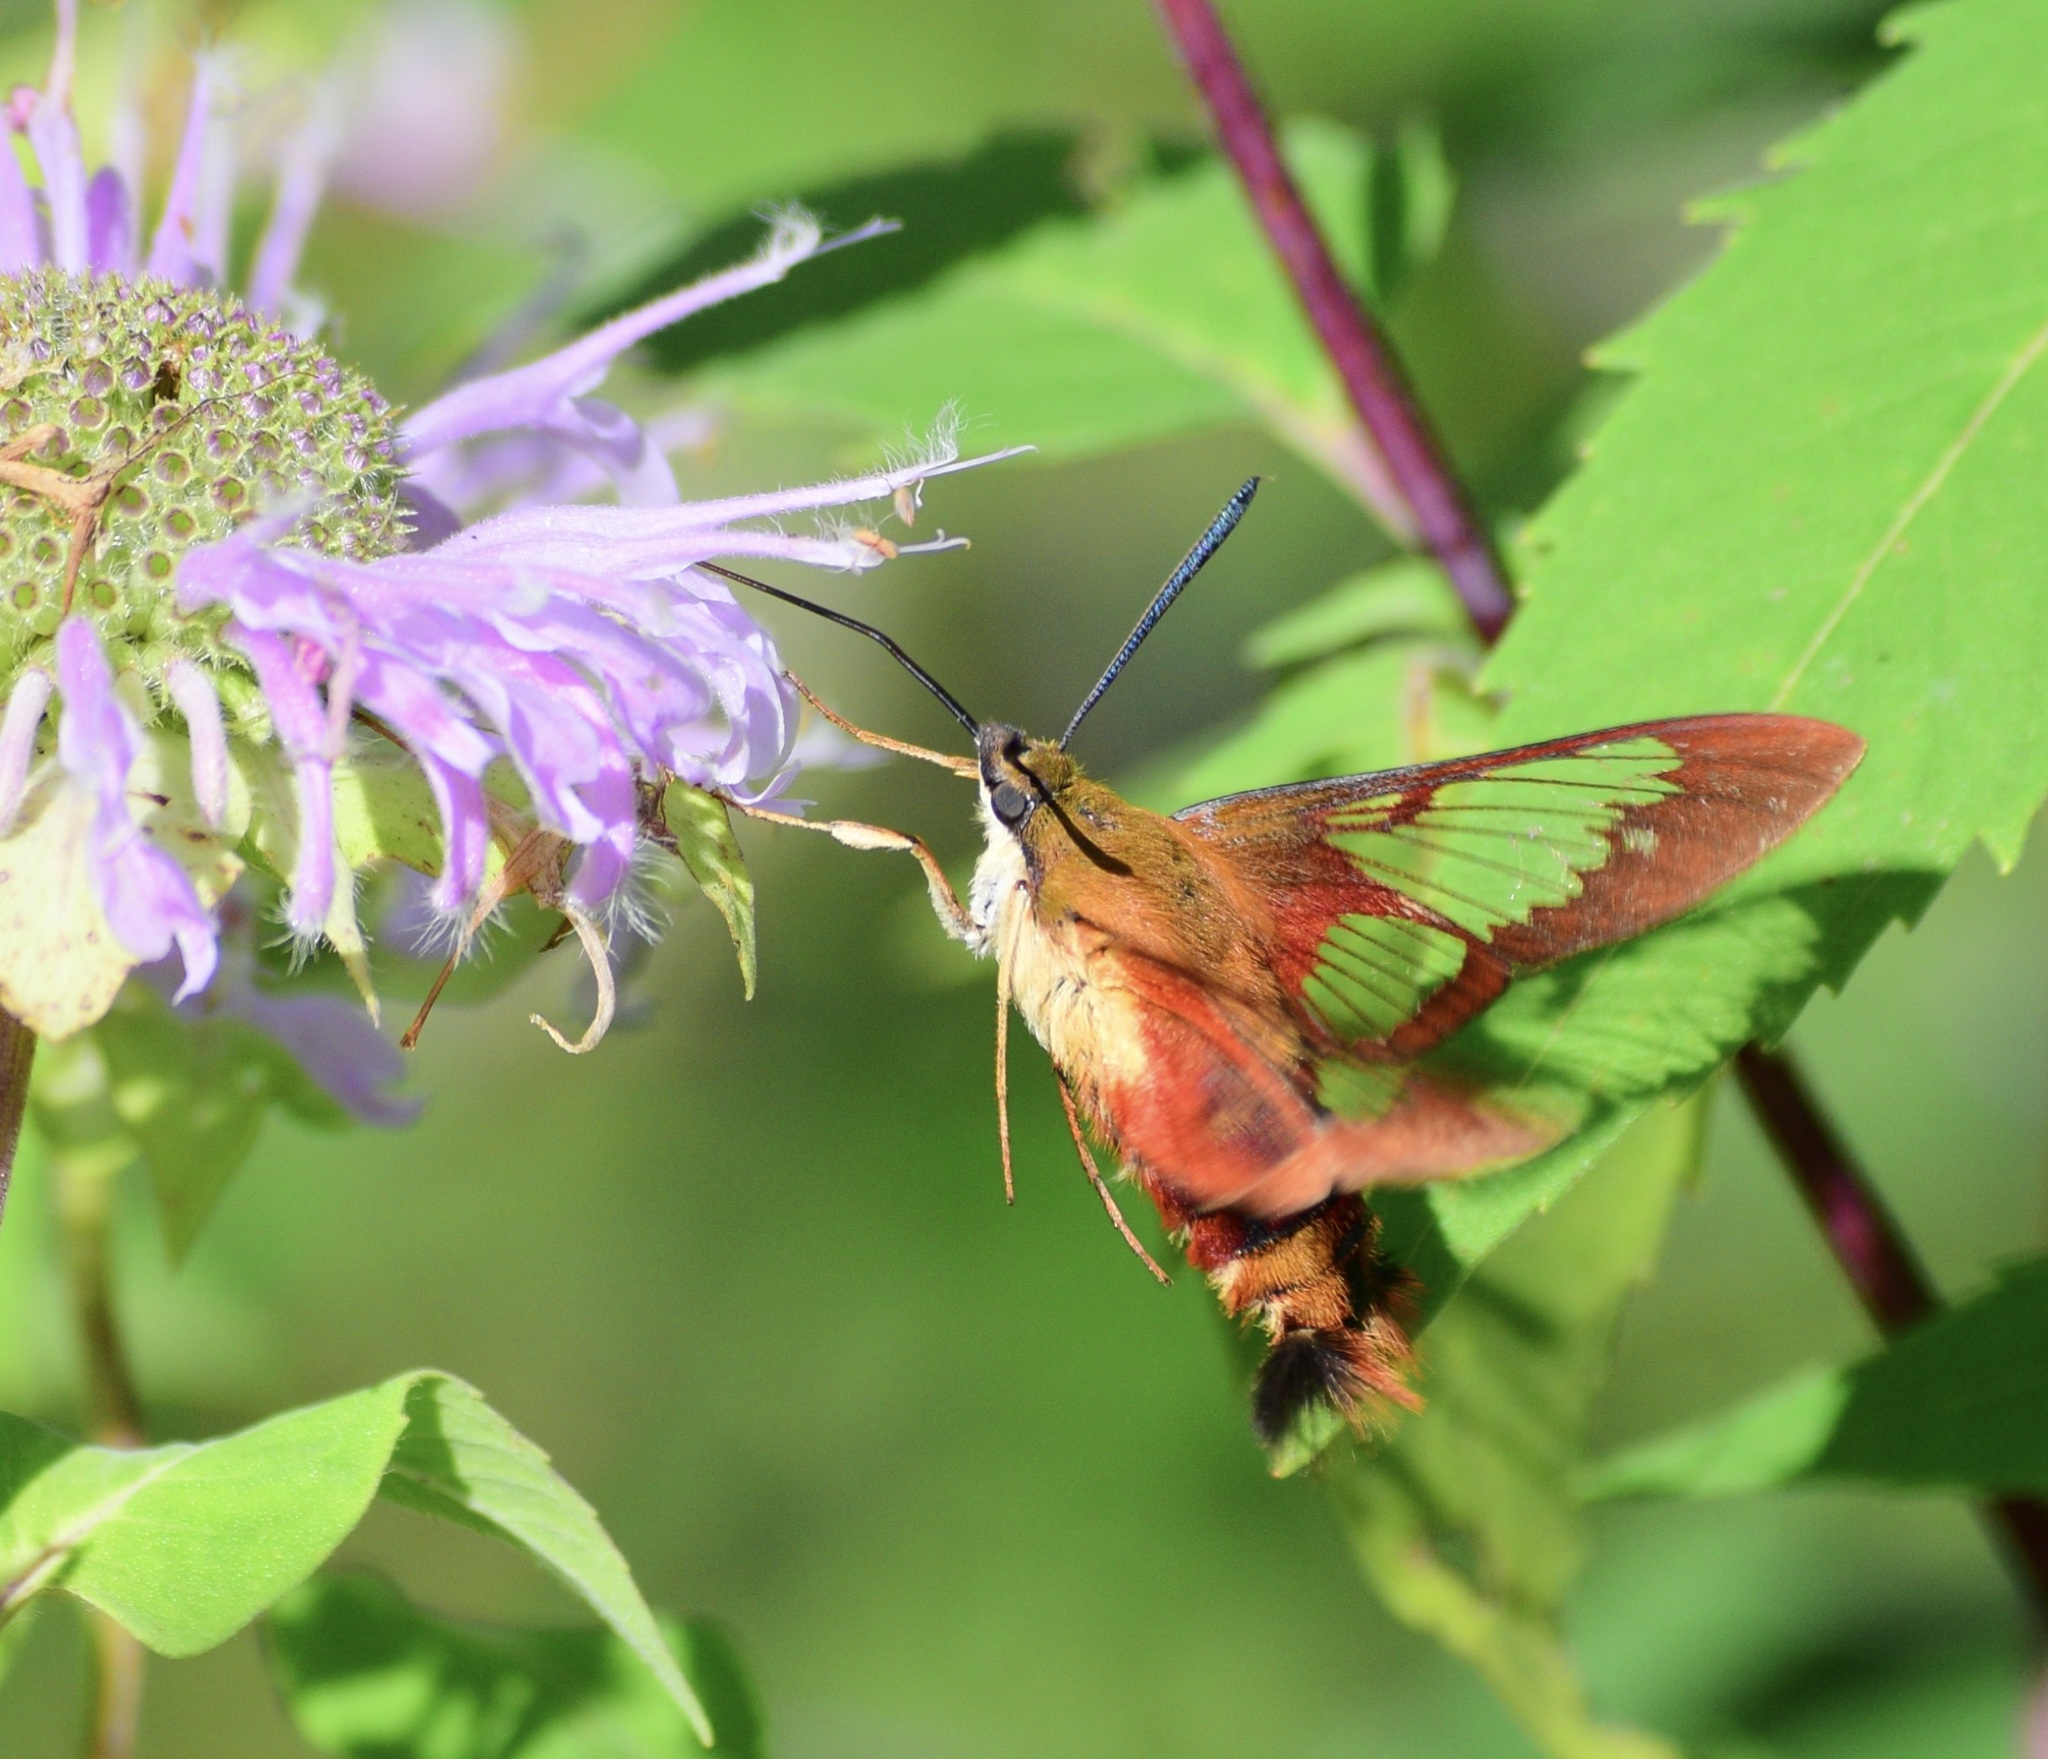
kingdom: Animalia
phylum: Arthropoda
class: Insecta
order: Lepidoptera
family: Sphingidae
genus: Hemaris
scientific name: Hemaris thysbe
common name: Common clear-wing
